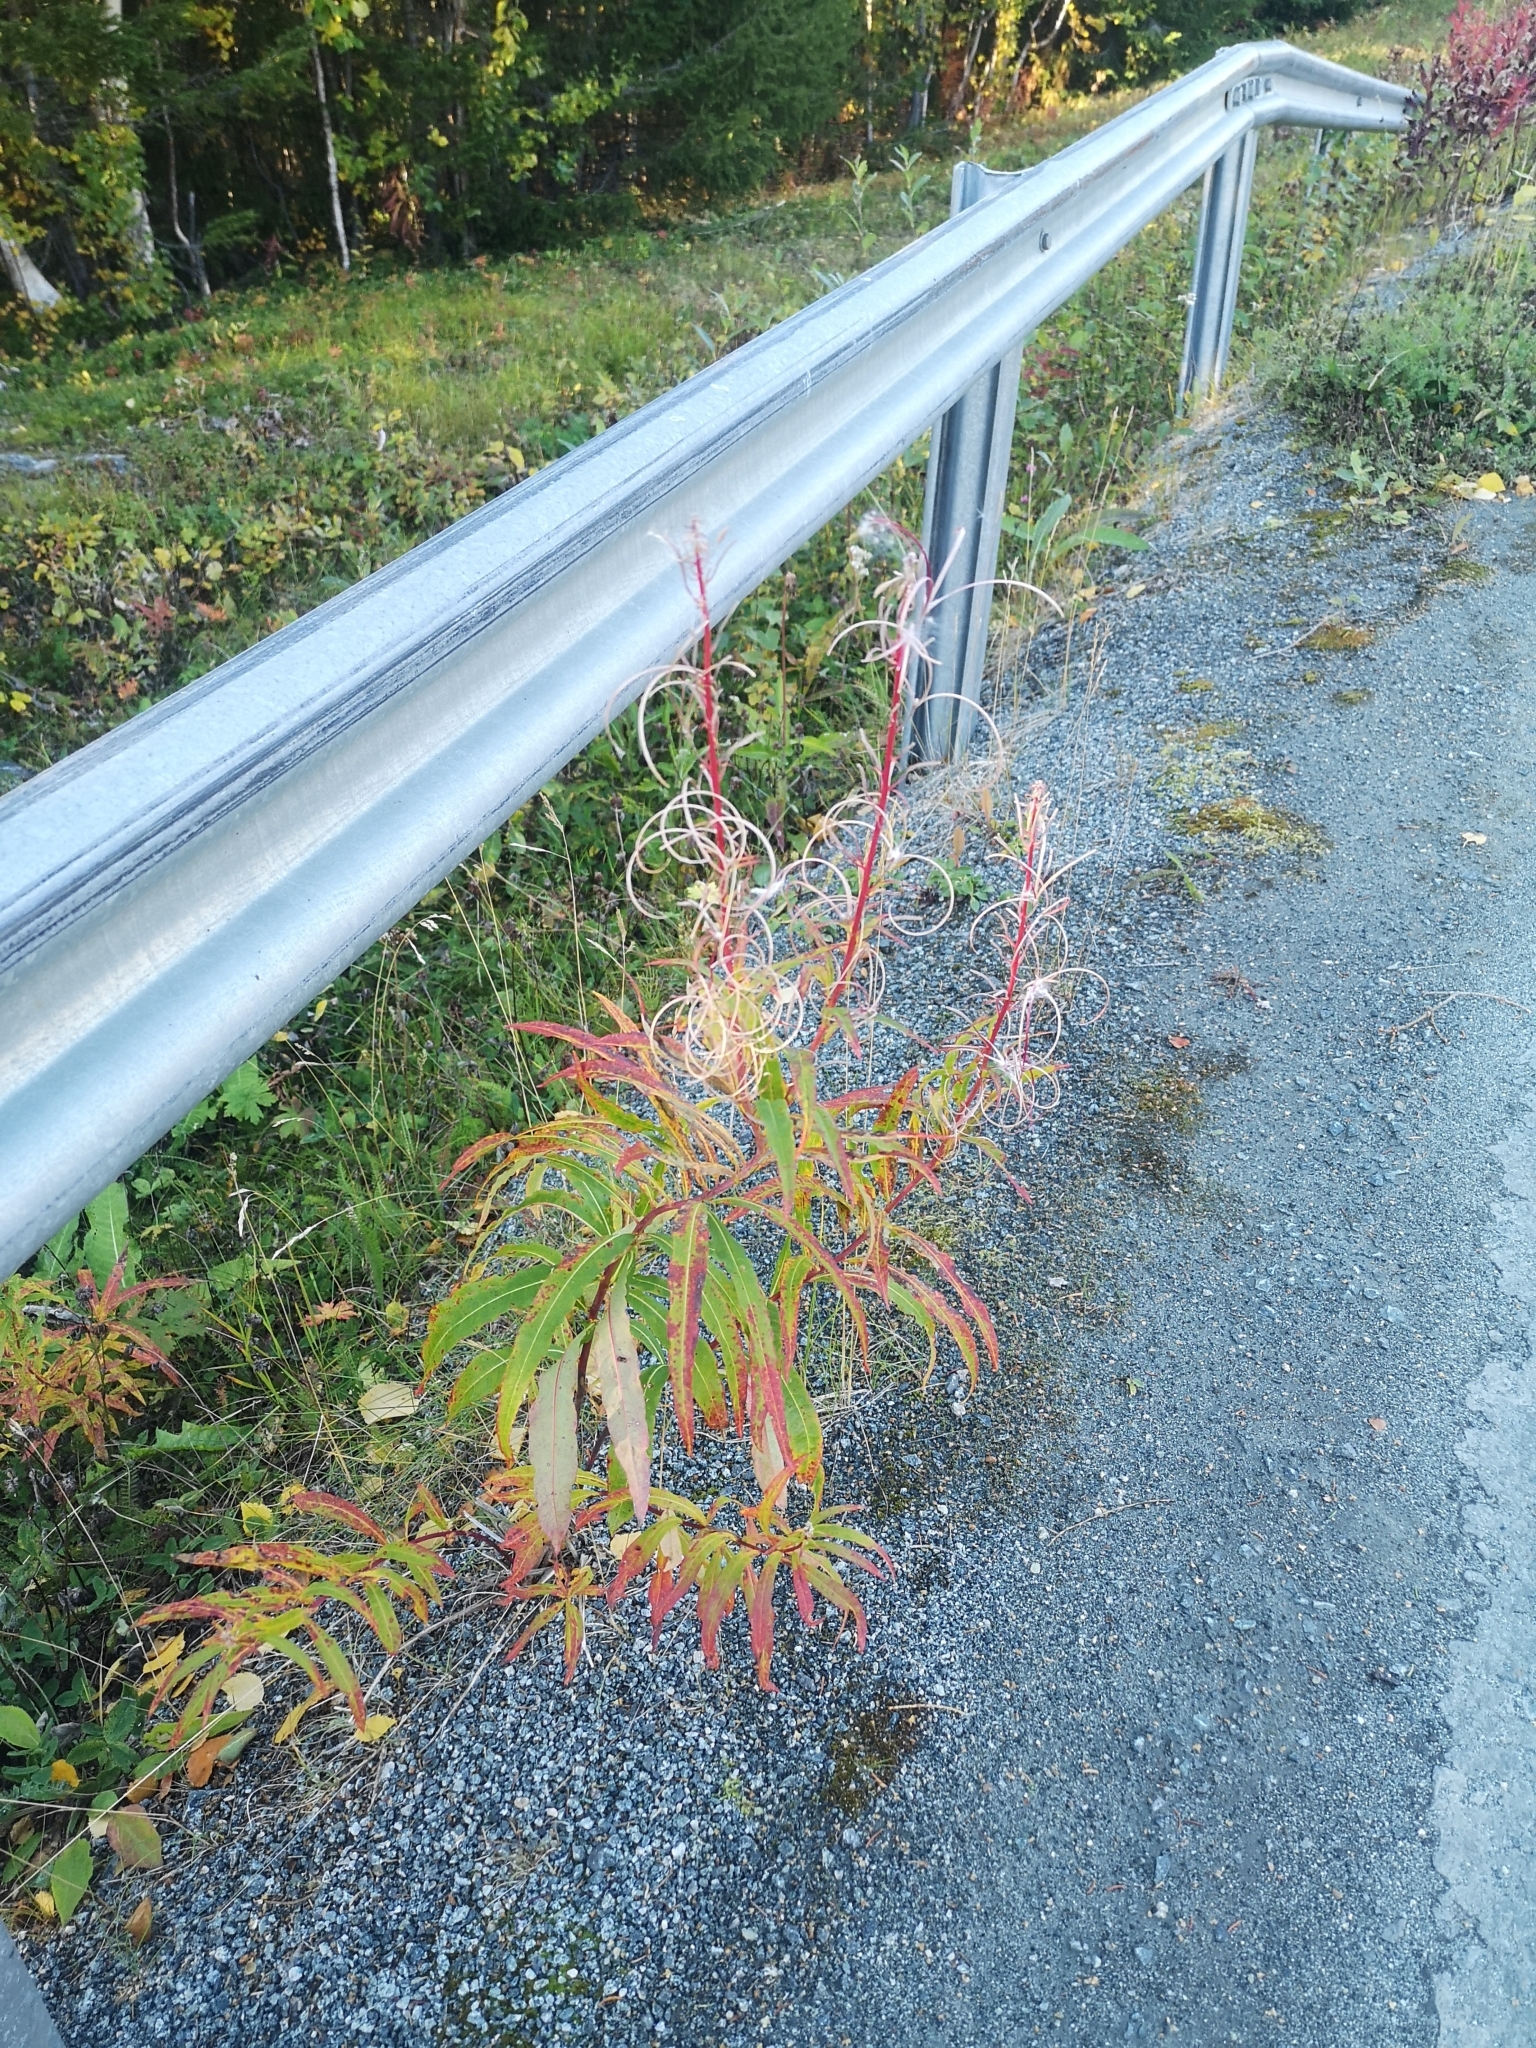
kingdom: Plantae
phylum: Tracheophyta
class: Magnoliopsida
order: Myrtales
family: Onagraceae
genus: Chamaenerion
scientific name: Chamaenerion angustifolium
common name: Fireweed
